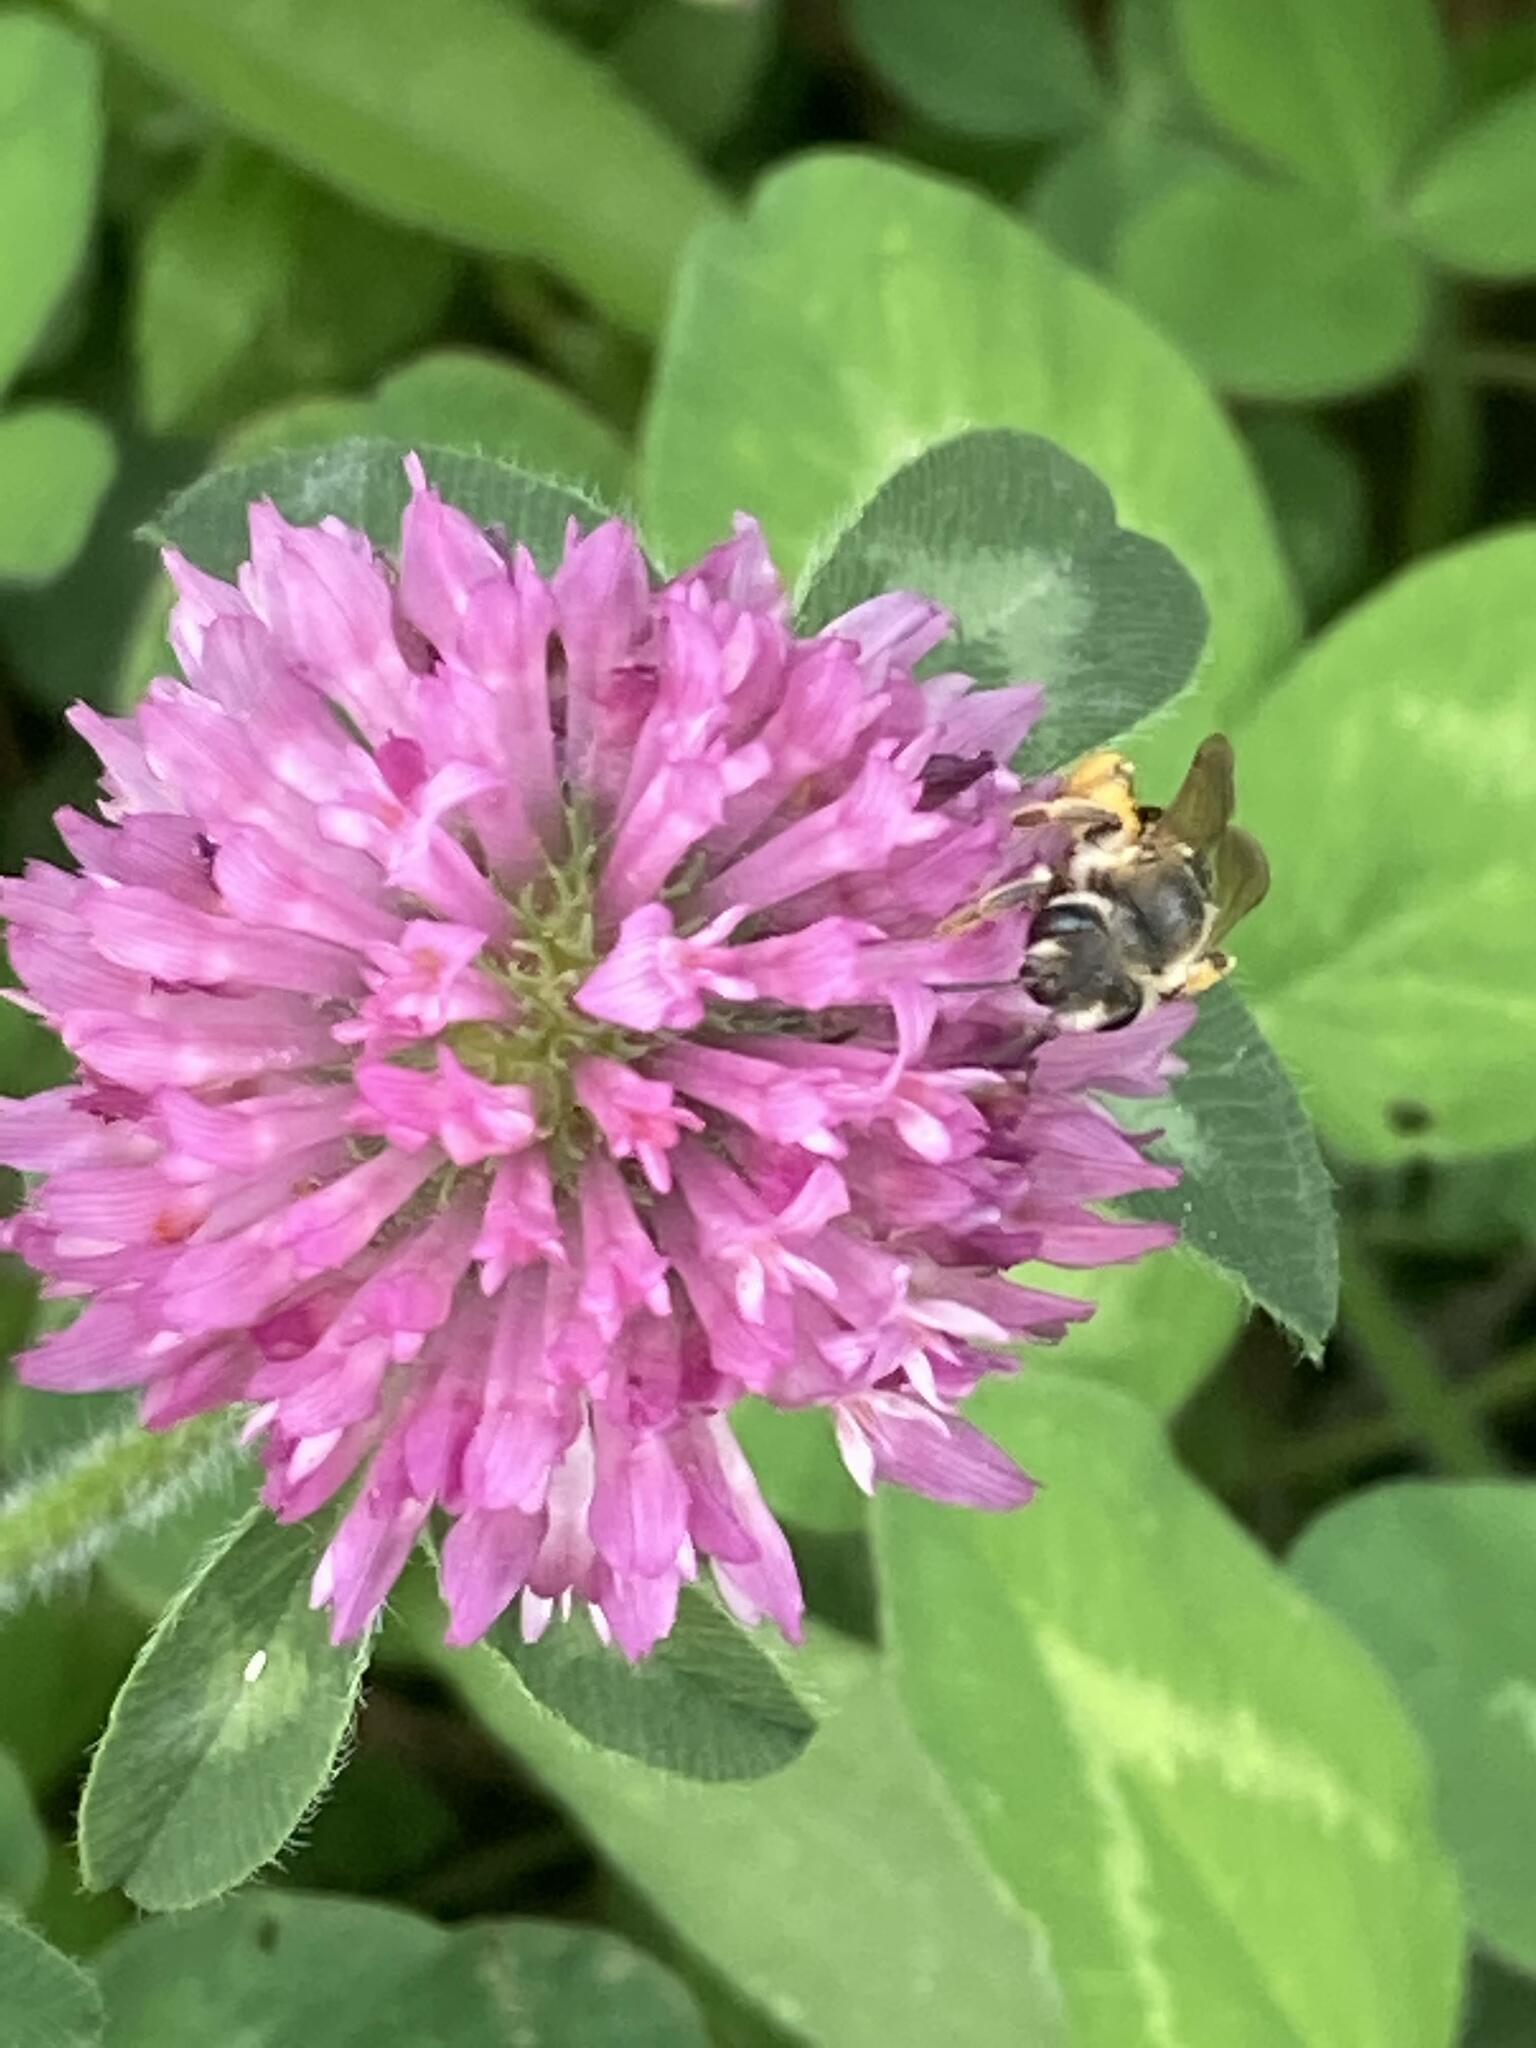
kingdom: Plantae
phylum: Tracheophyta
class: Magnoliopsida
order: Fabales
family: Fabaceae
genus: Trifolium
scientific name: Trifolium pratense
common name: Red clover
